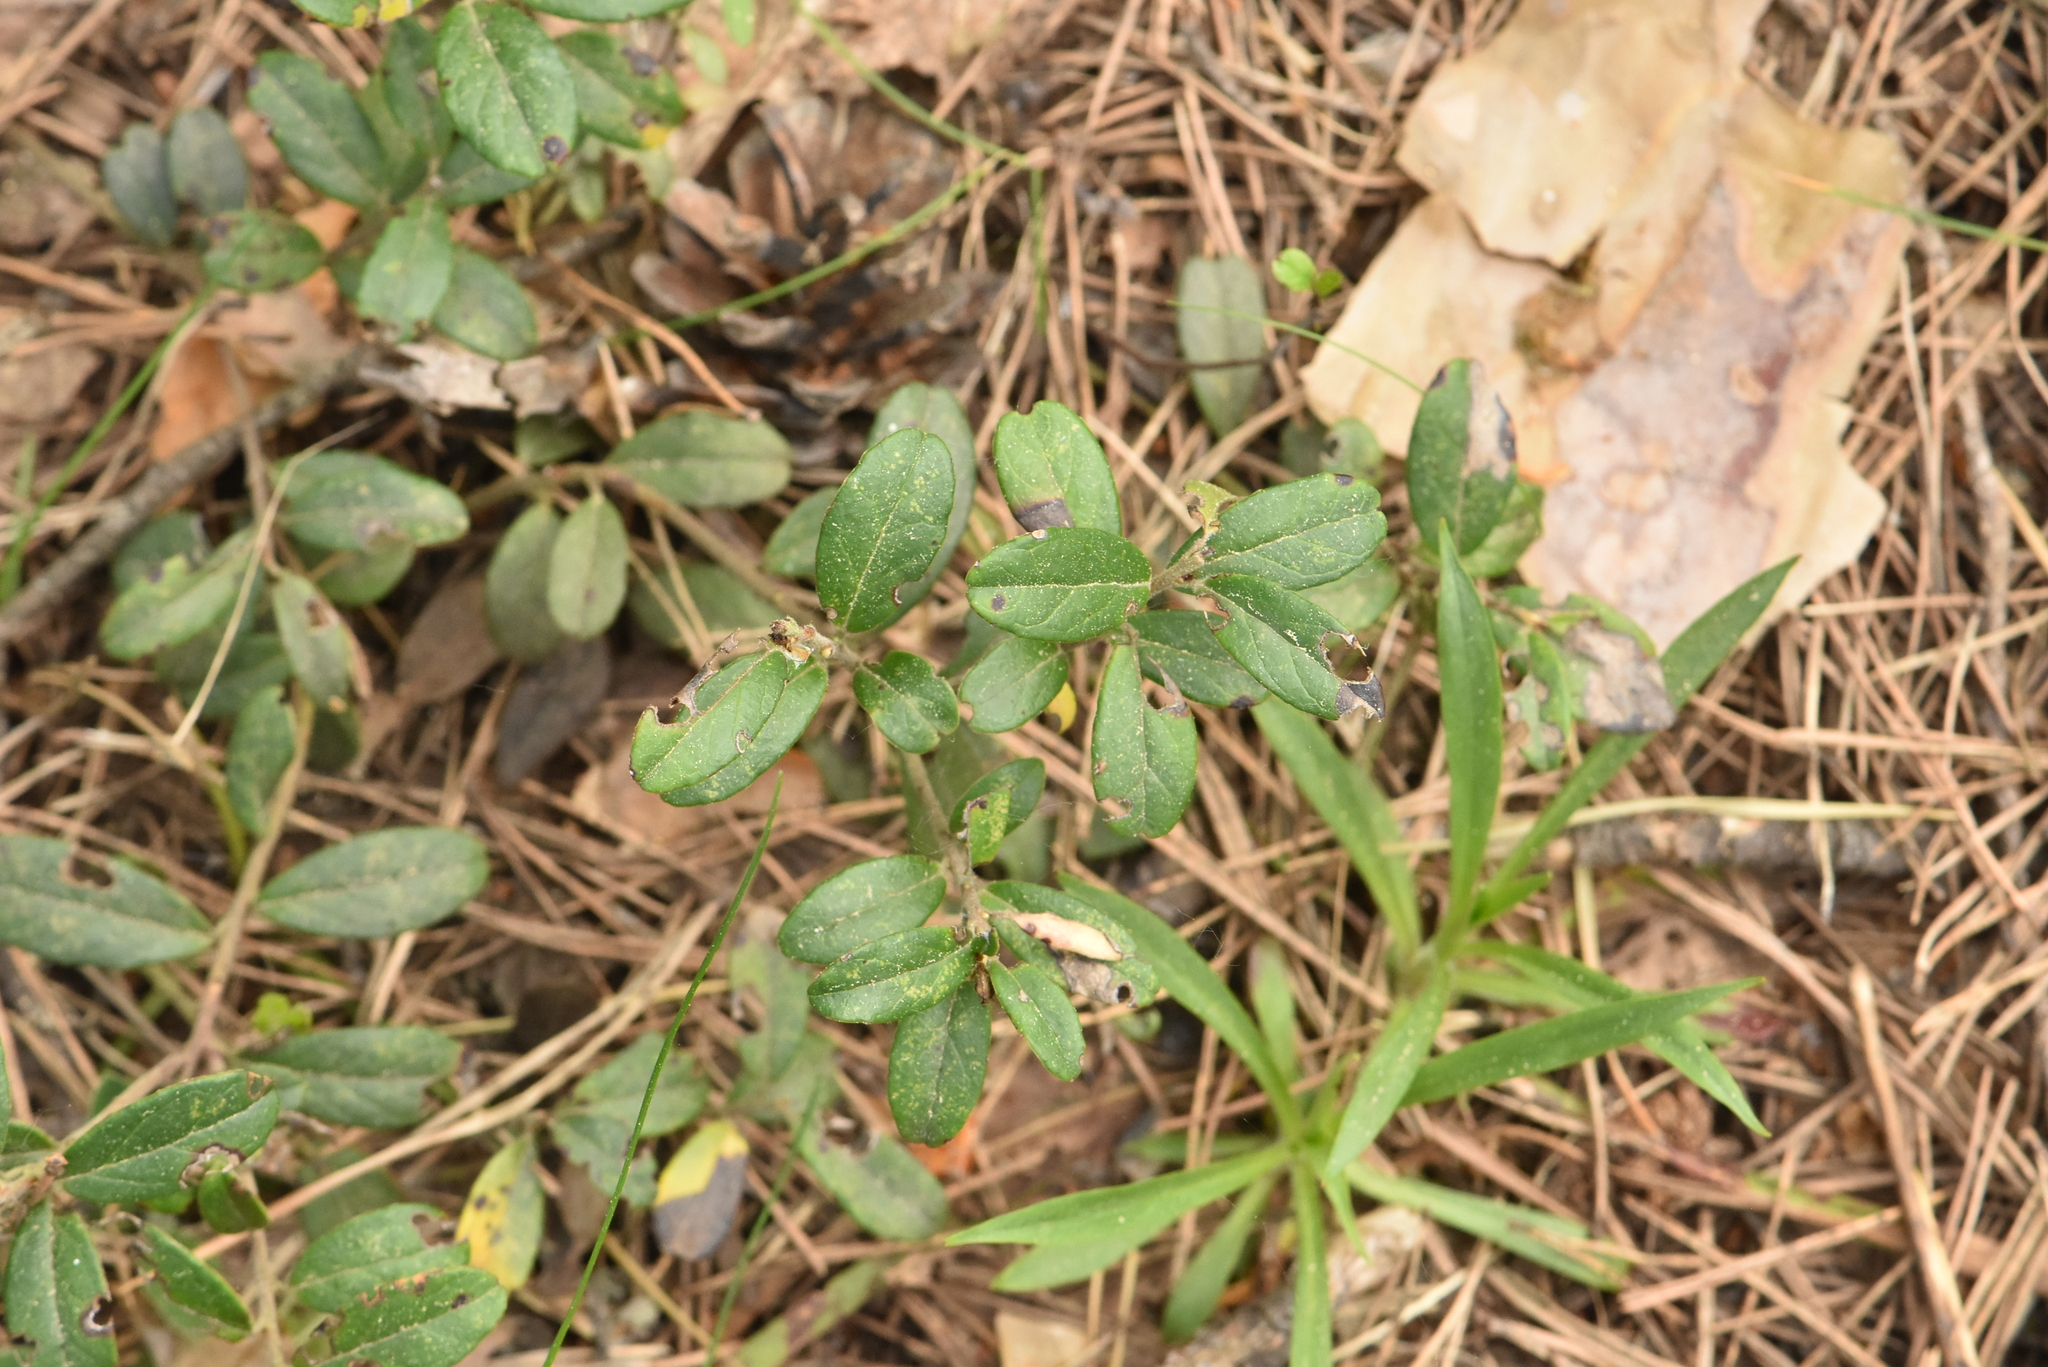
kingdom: Plantae
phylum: Tracheophyta
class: Magnoliopsida
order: Ericales
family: Ericaceae
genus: Vaccinium
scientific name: Vaccinium vitis-idaea
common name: Cowberry
